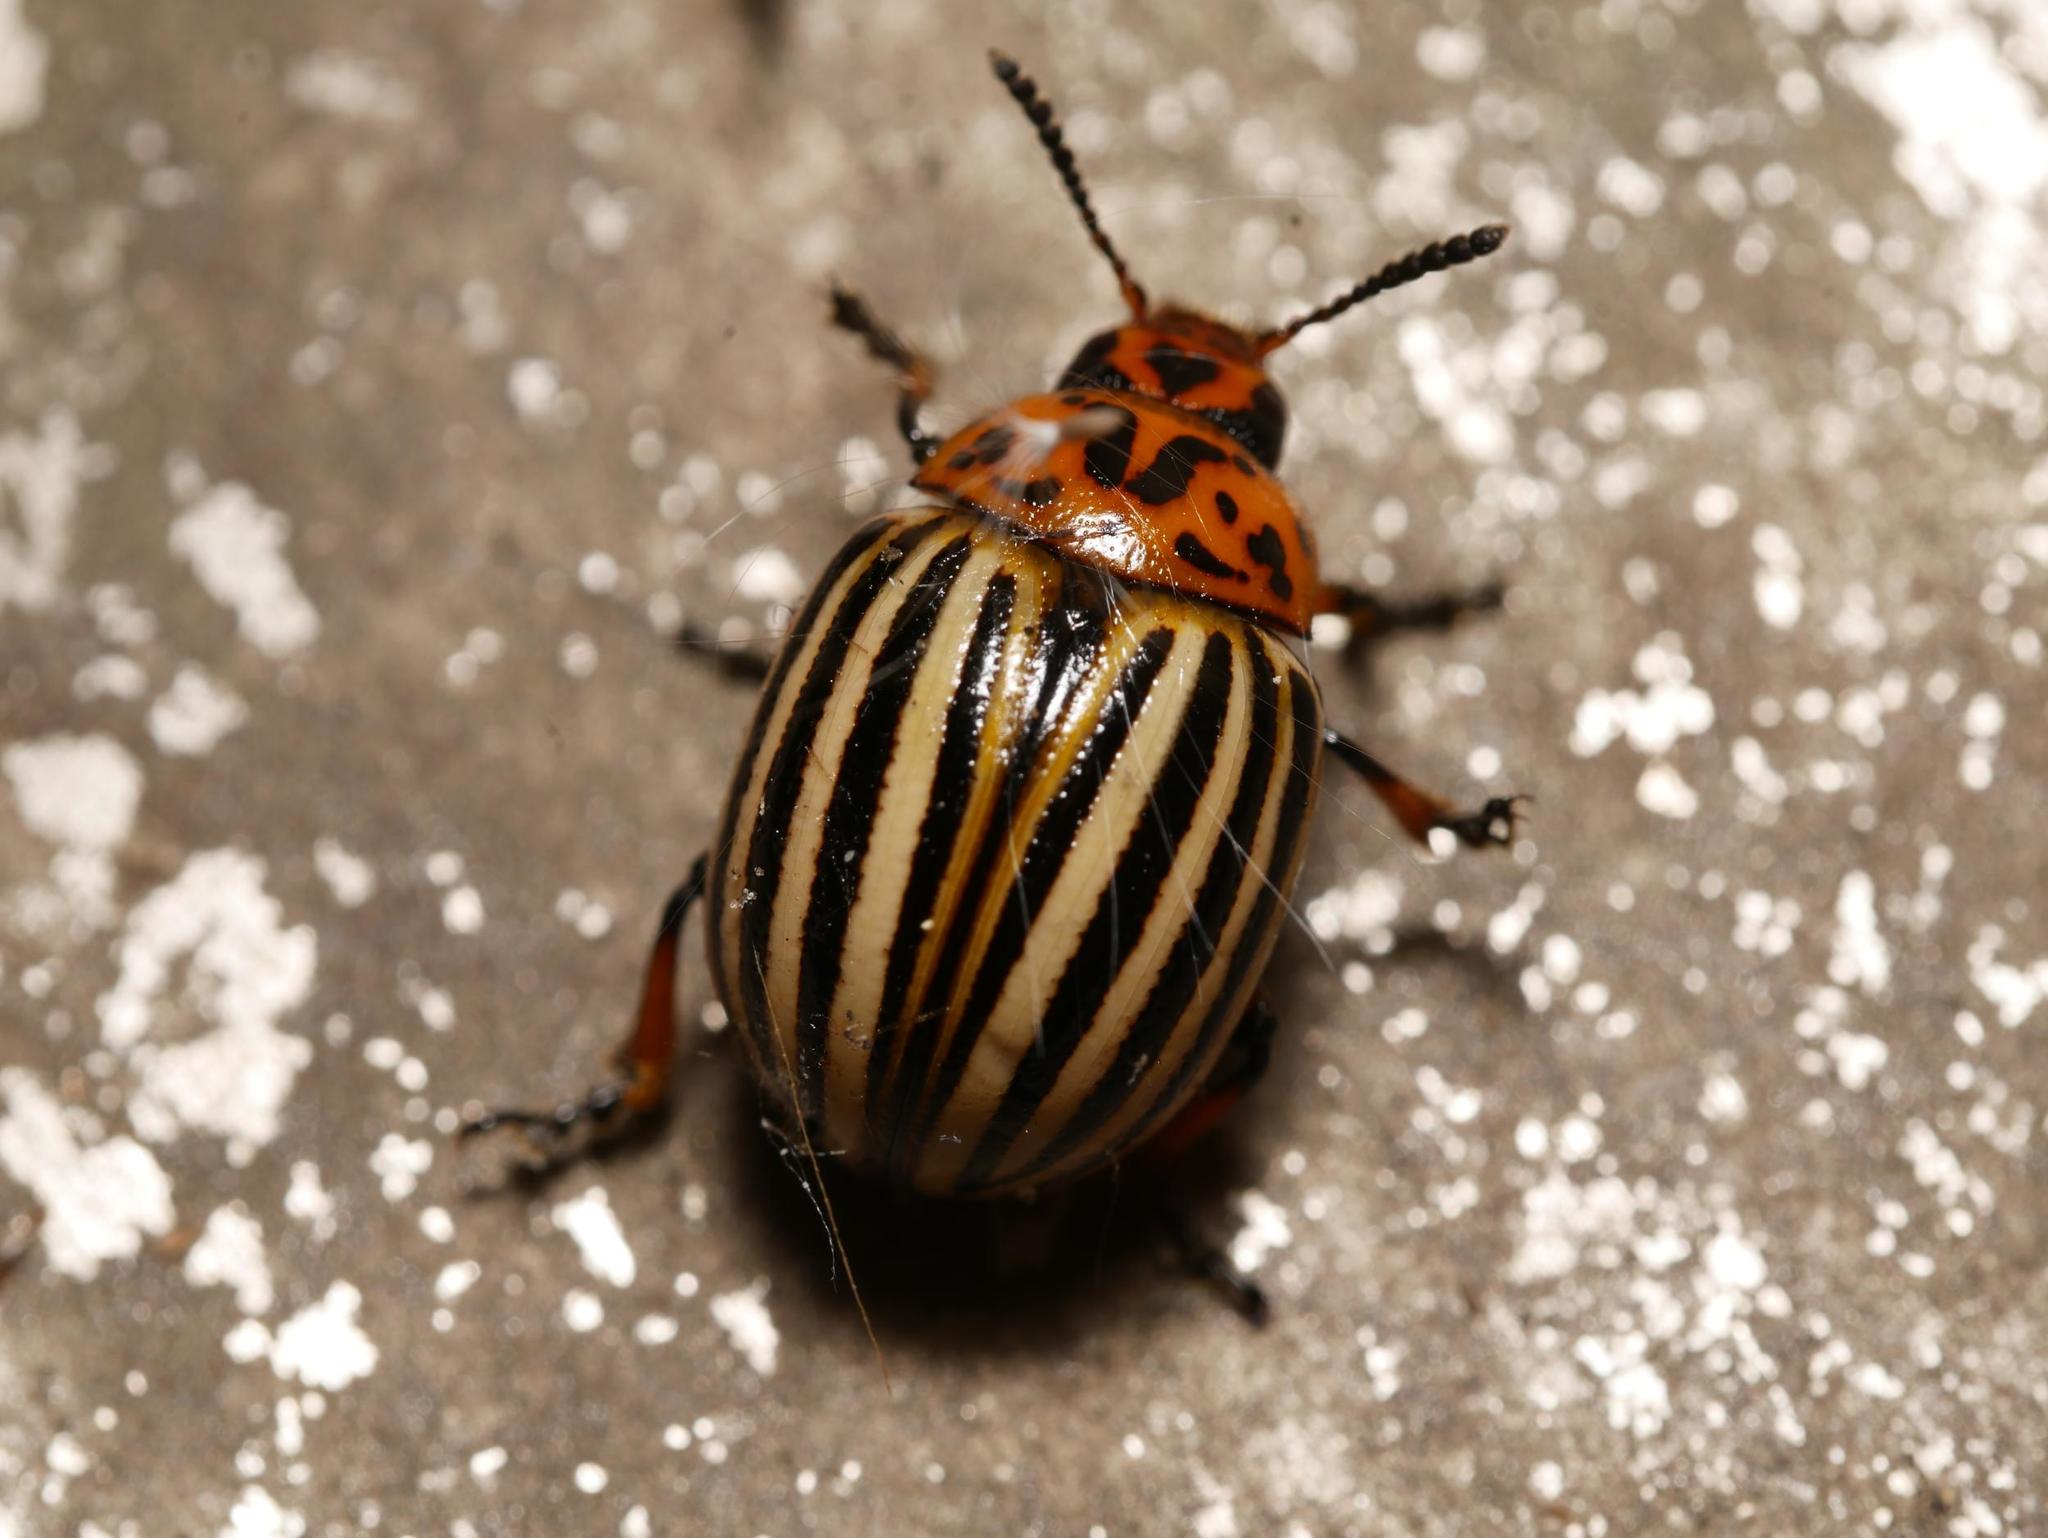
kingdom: Animalia
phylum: Arthropoda
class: Insecta
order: Coleoptera
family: Chrysomelidae
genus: Leptinotarsa
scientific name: Leptinotarsa decemlineata
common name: Colorado potato beetle
